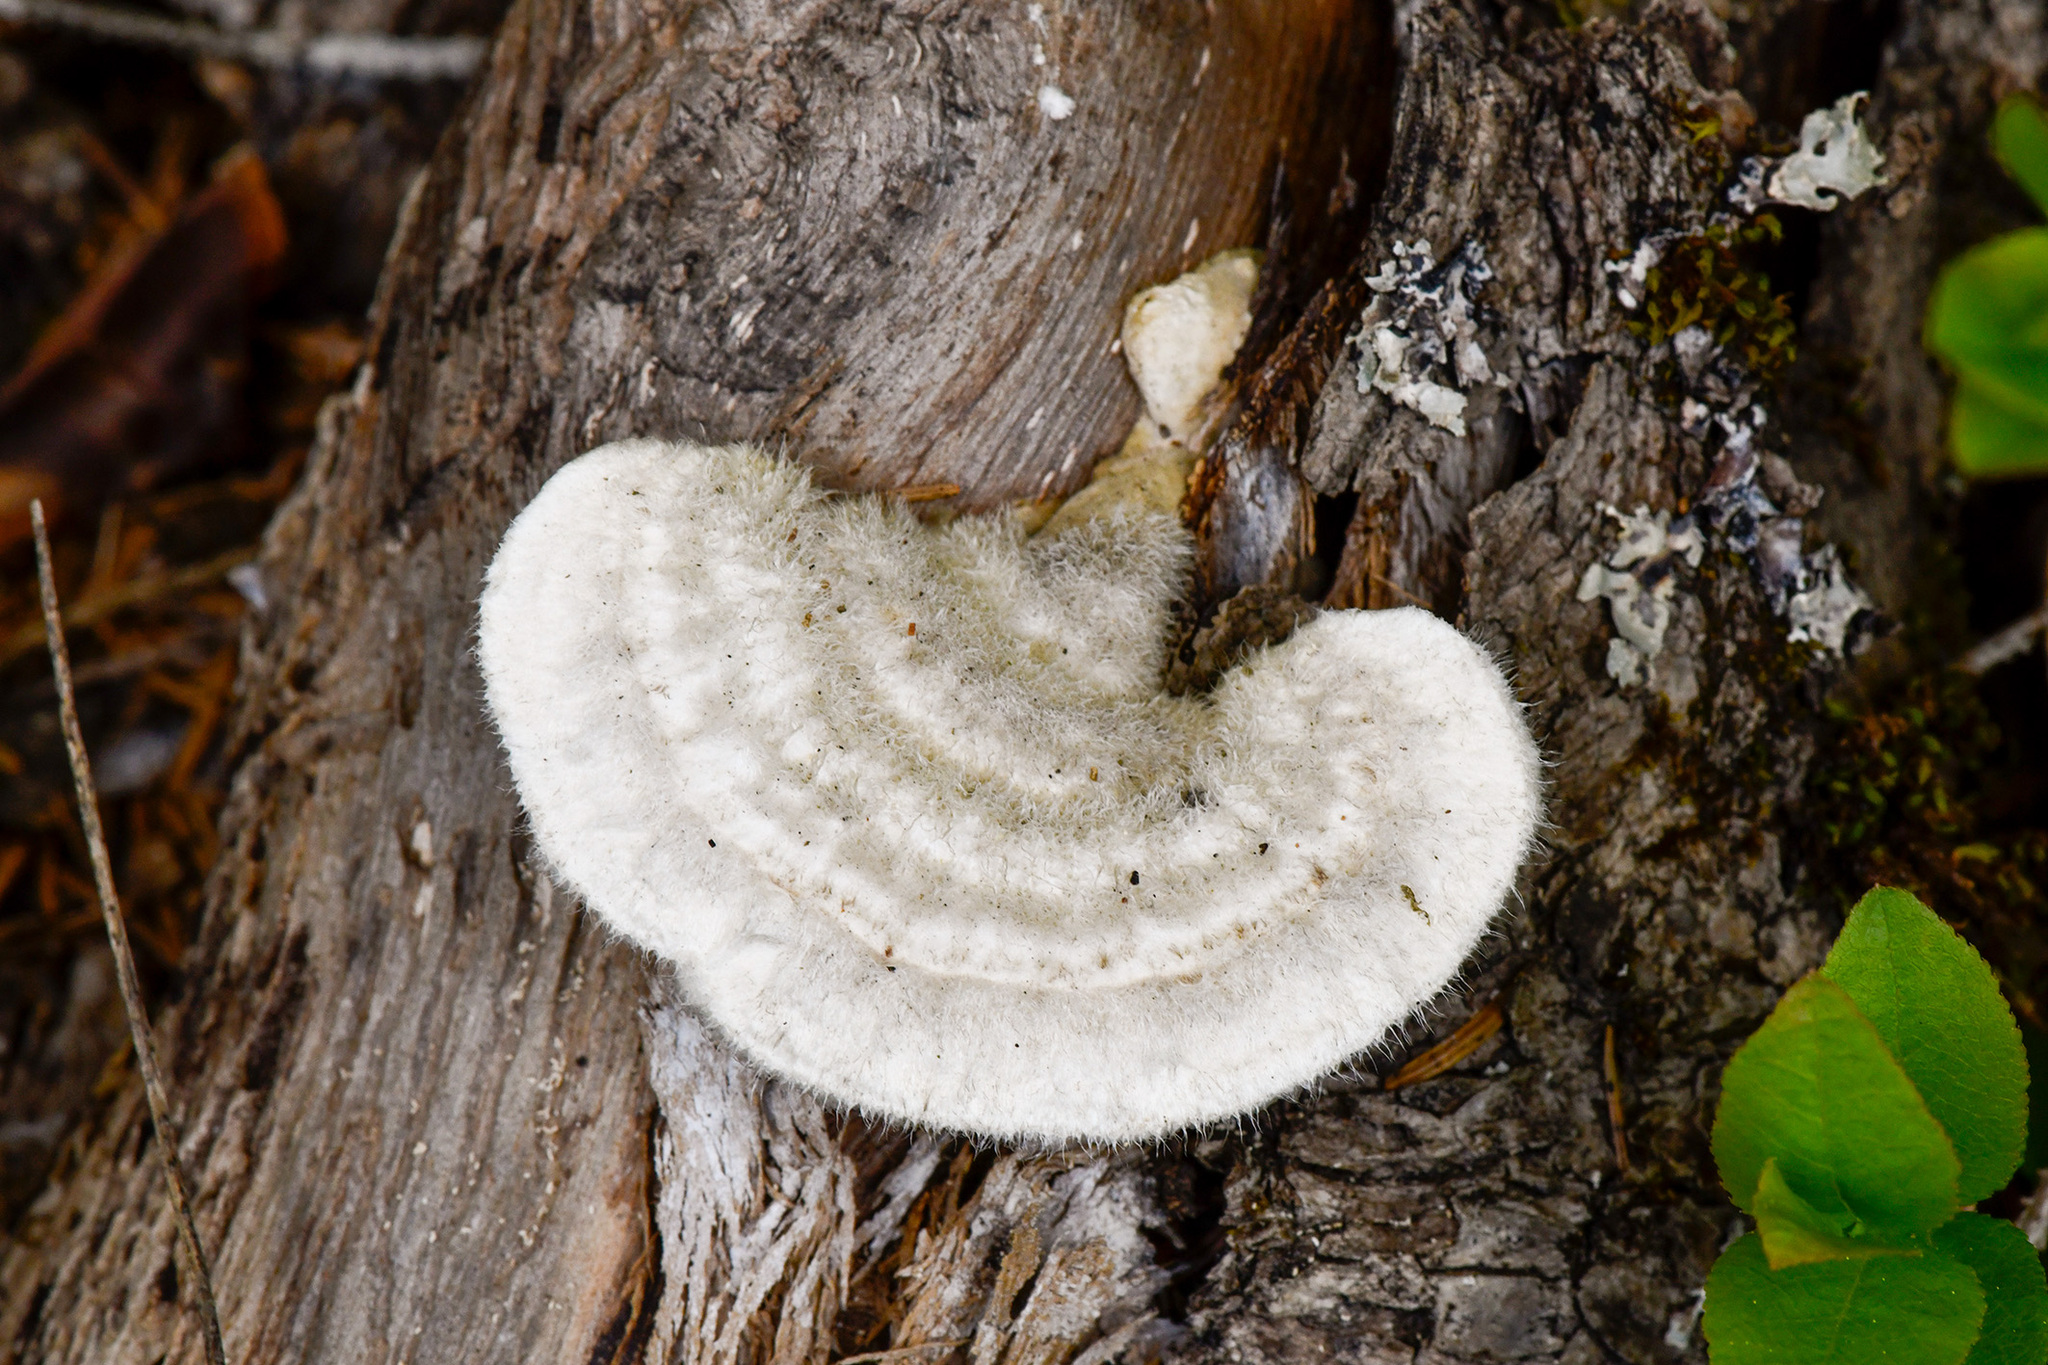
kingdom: Fungi
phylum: Basidiomycota
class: Agaricomycetes
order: Polyporales
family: Polyporaceae
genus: Trametes
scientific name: Trametes pubescens
